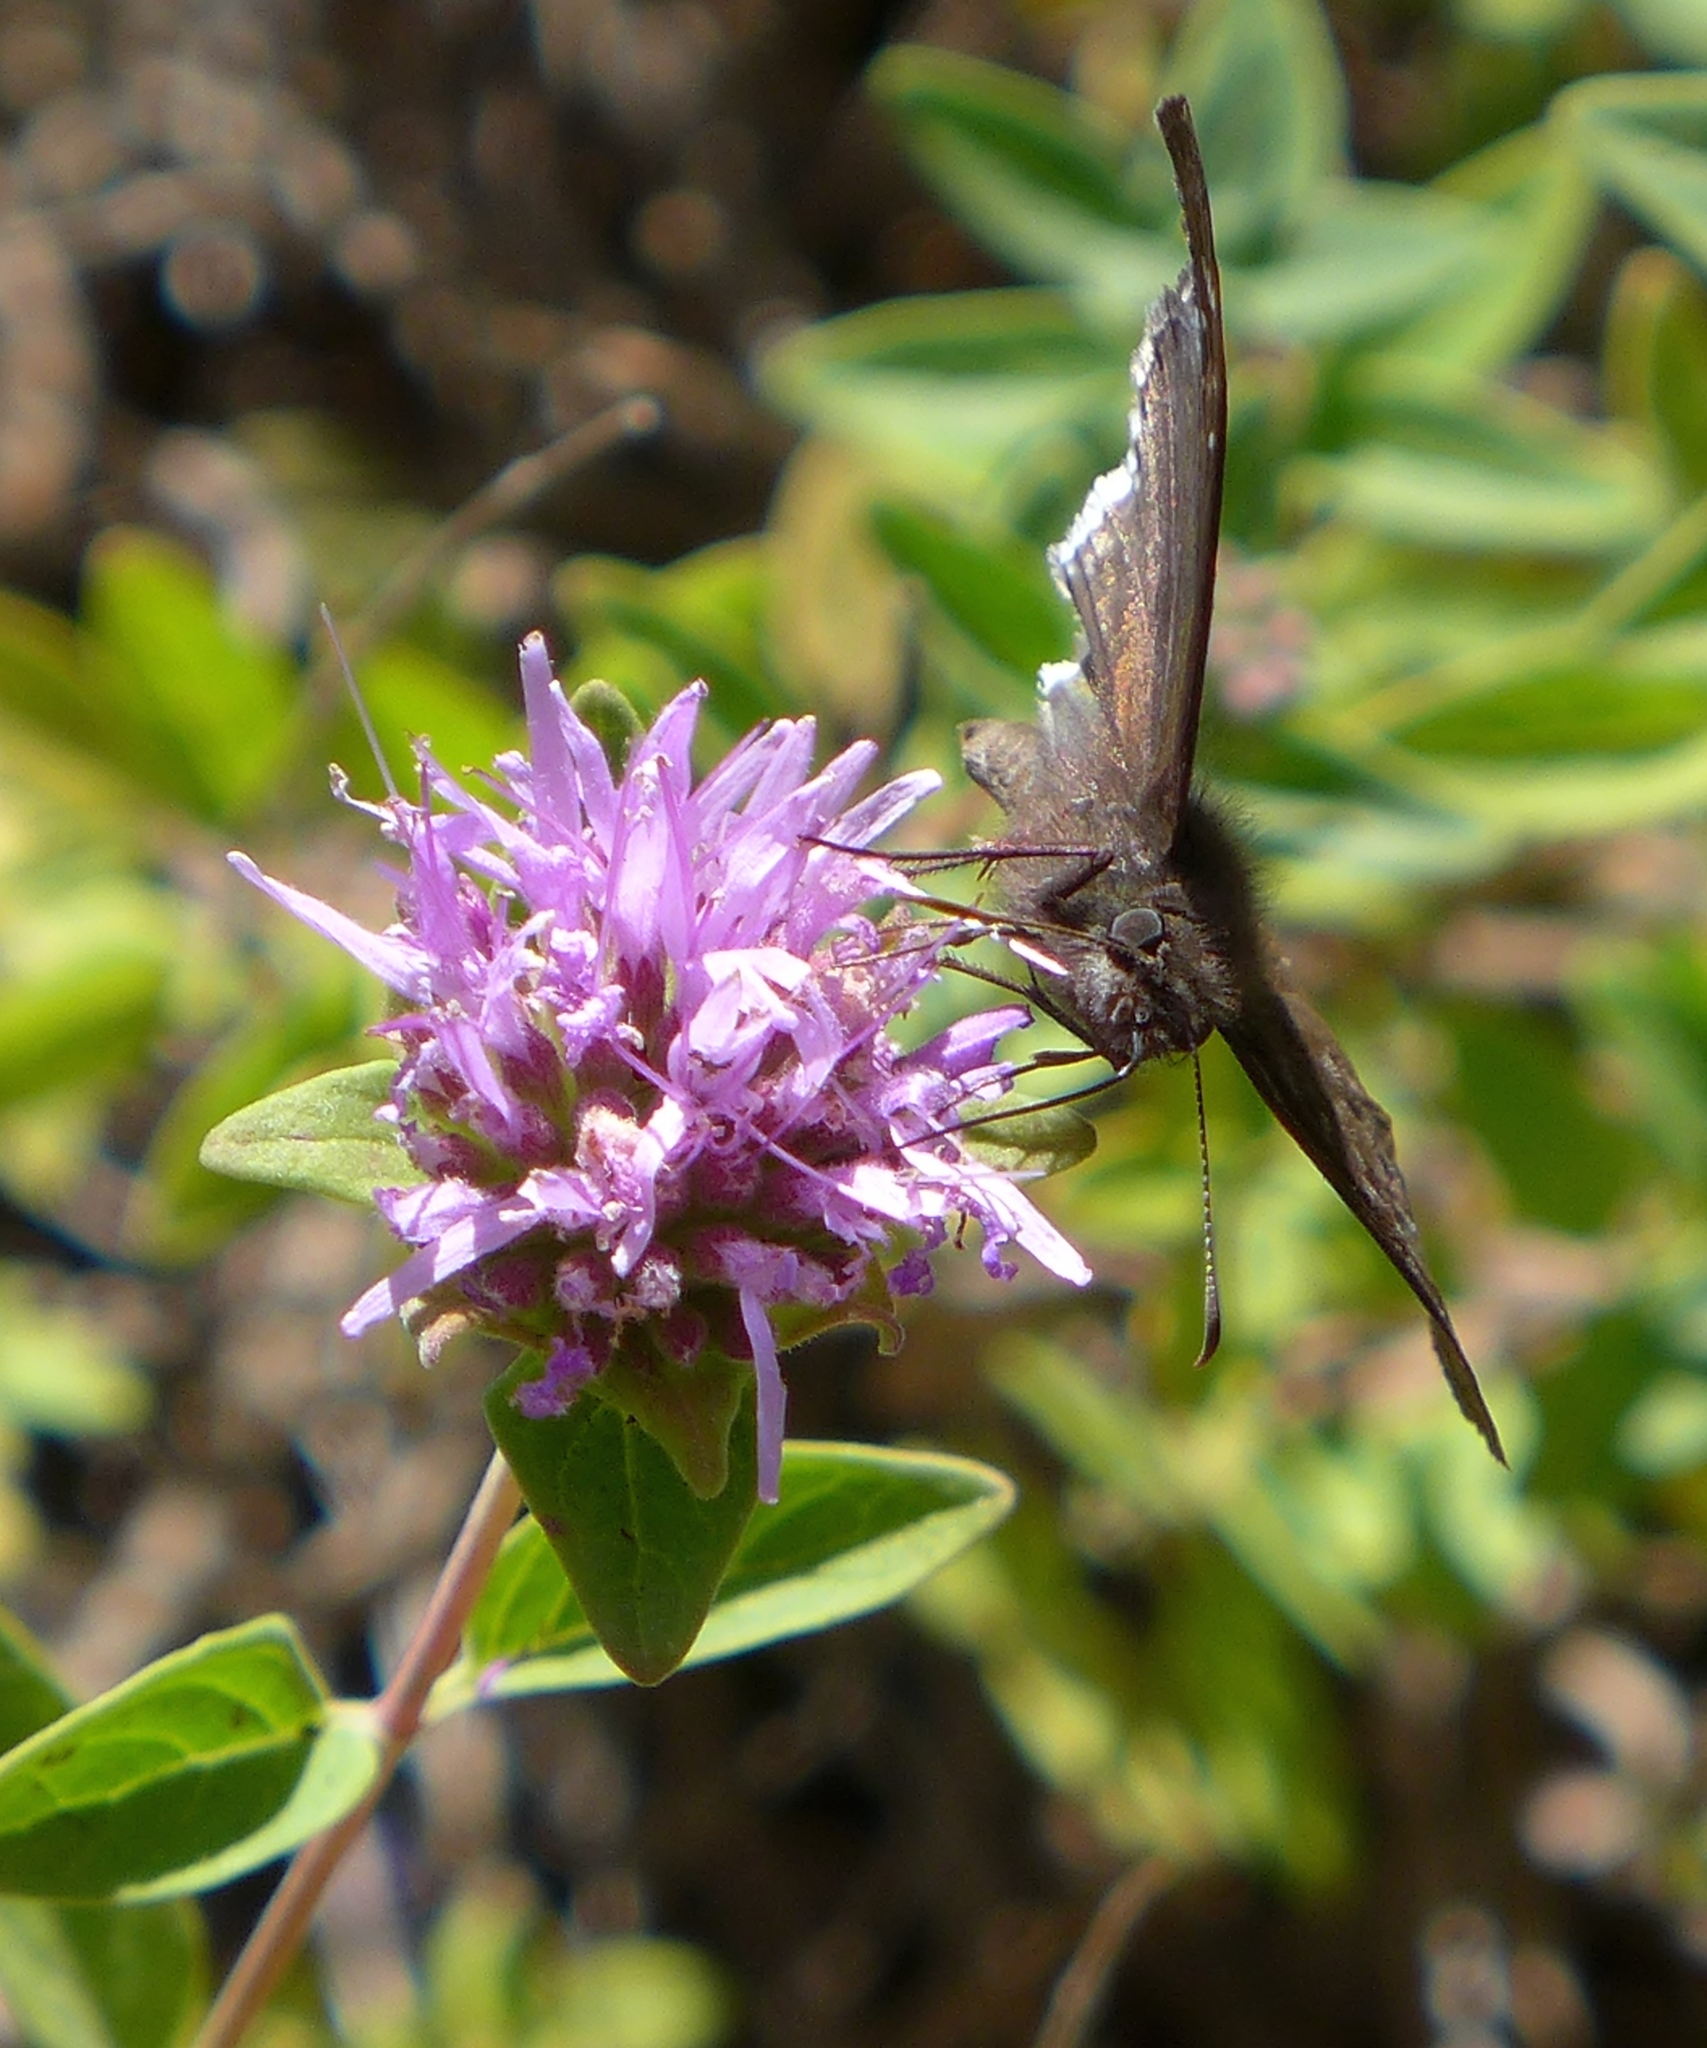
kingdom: Animalia
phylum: Arthropoda
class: Insecta
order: Lepidoptera
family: Hesperiidae
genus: Erynnis
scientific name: Erynnis tristis
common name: Mournful duskywing
